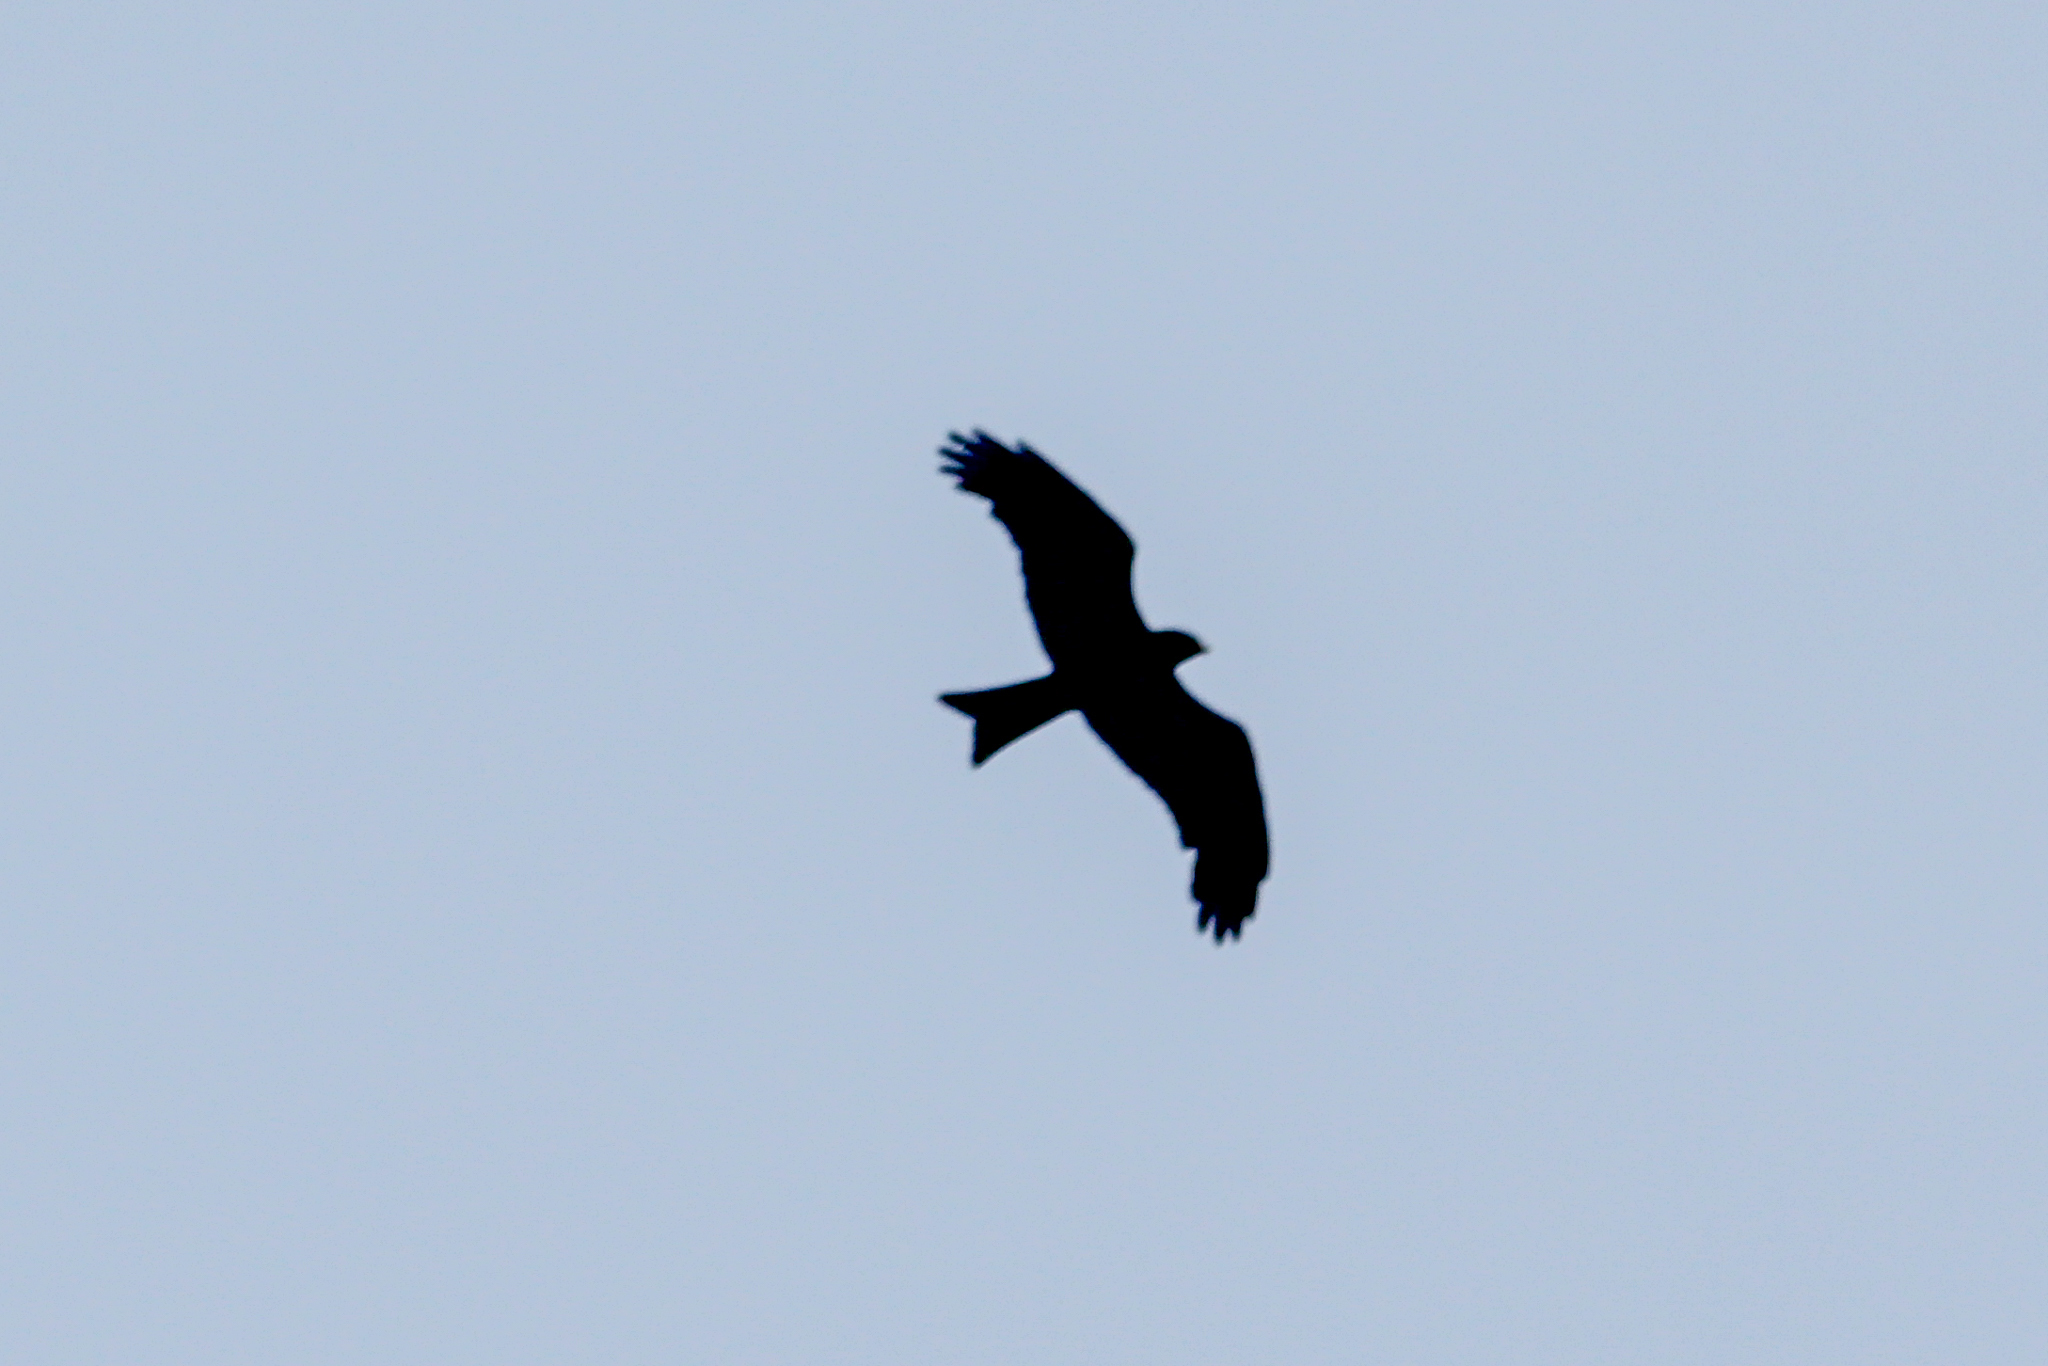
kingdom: Animalia
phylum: Chordata
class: Aves
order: Accipitriformes
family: Accipitridae
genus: Milvus
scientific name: Milvus migrans
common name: Black kite
